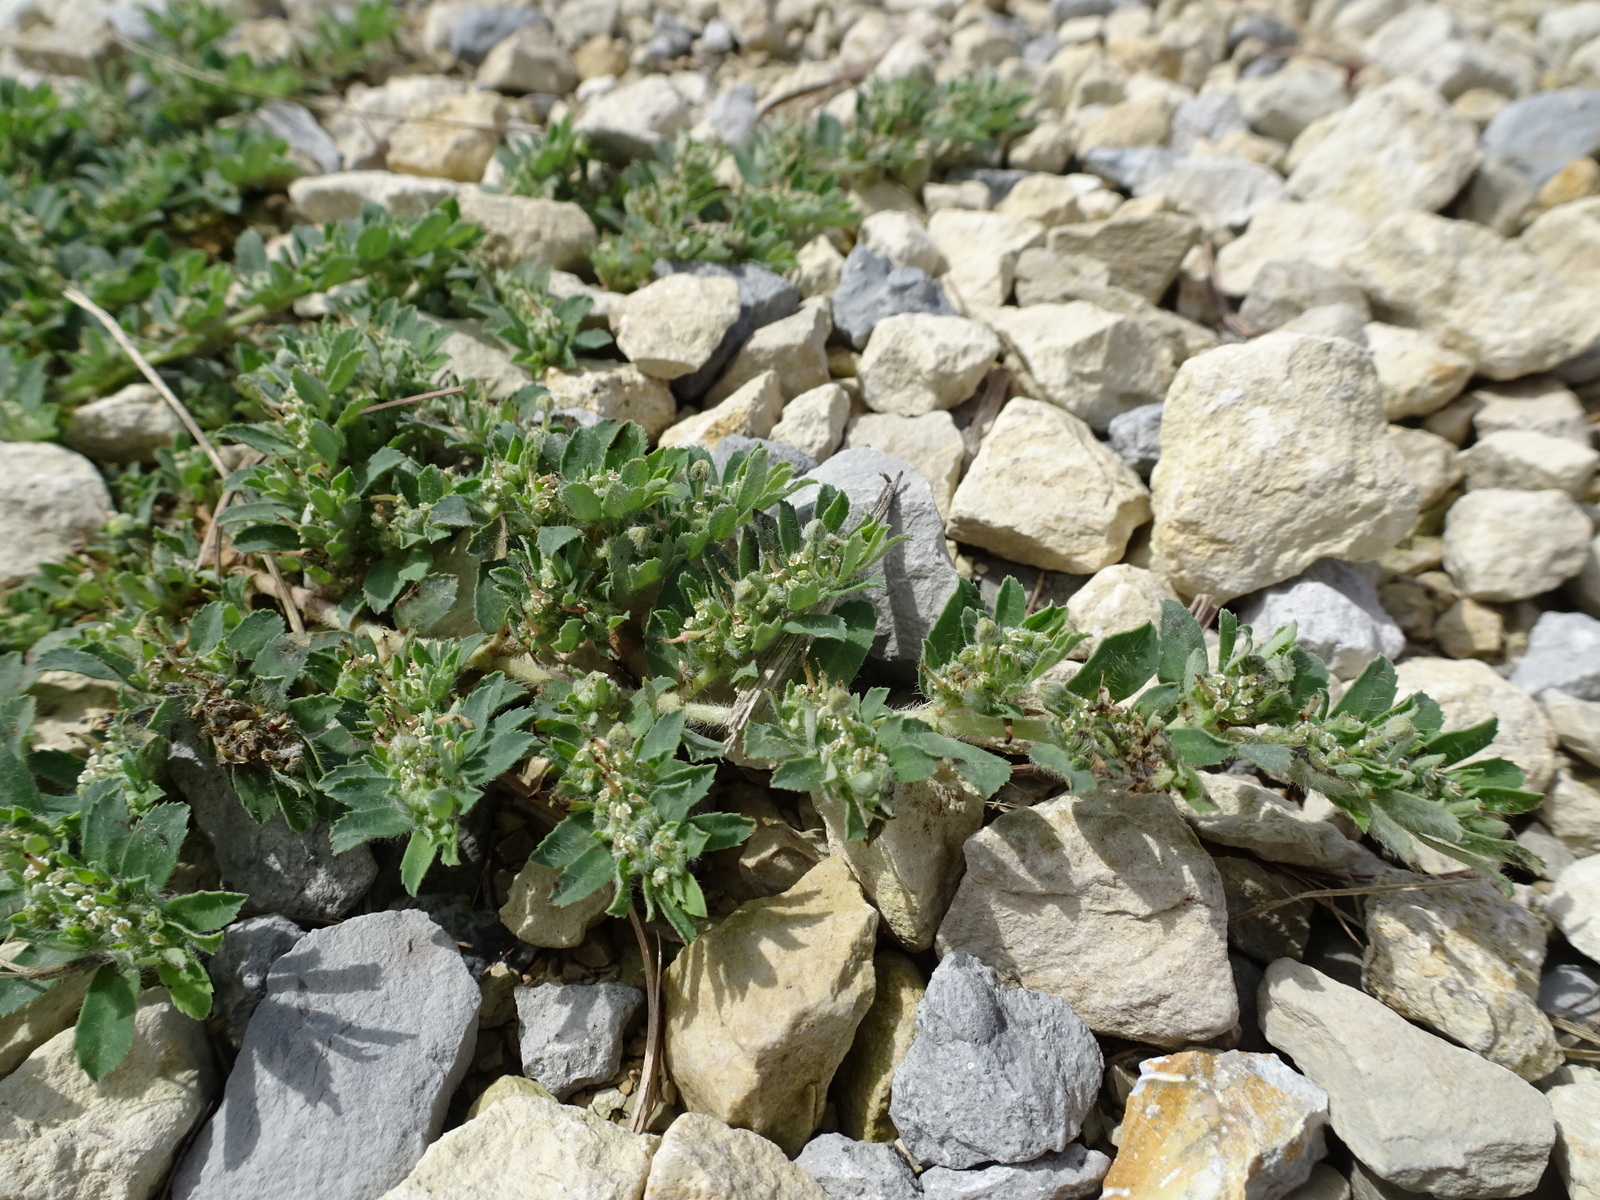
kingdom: Plantae
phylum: Tracheophyta
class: Magnoliopsida
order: Malpighiales
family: Euphorbiaceae
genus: Euphorbia
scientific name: Euphorbia stictospora
